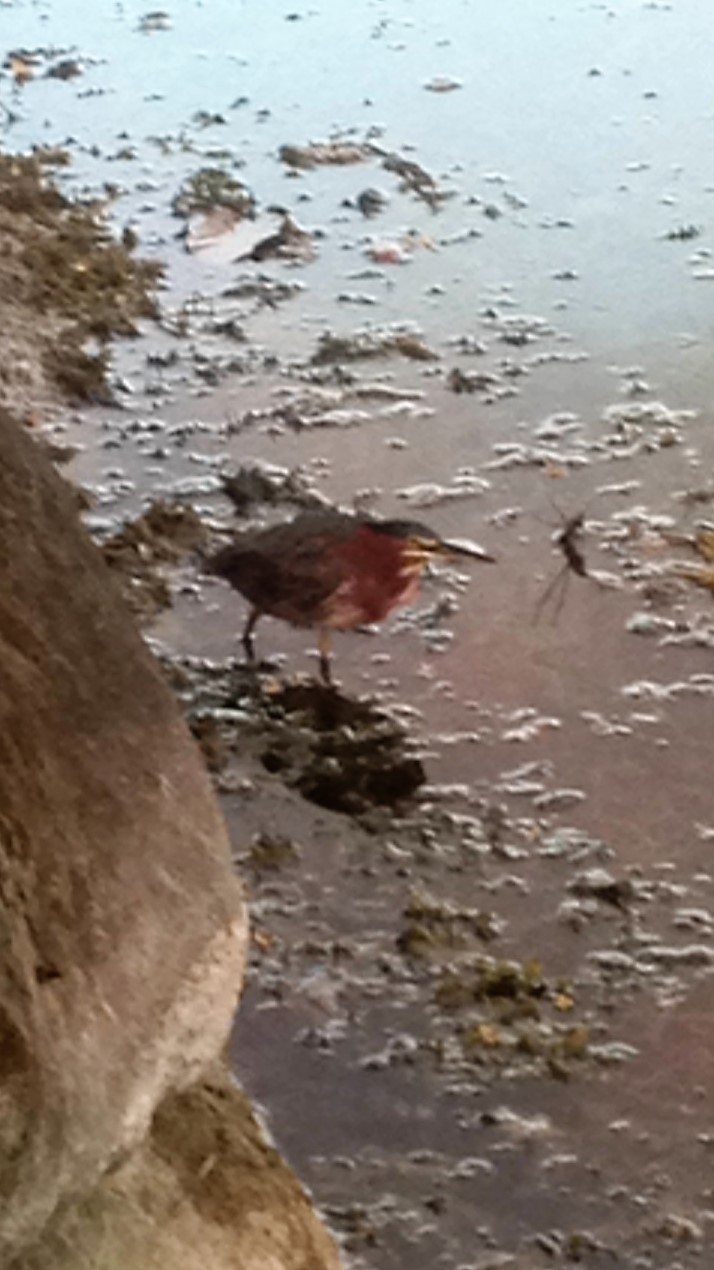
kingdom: Animalia
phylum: Chordata
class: Aves
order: Pelecaniformes
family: Ardeidae
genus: Butorides
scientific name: Butorides virescens
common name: Green heron
